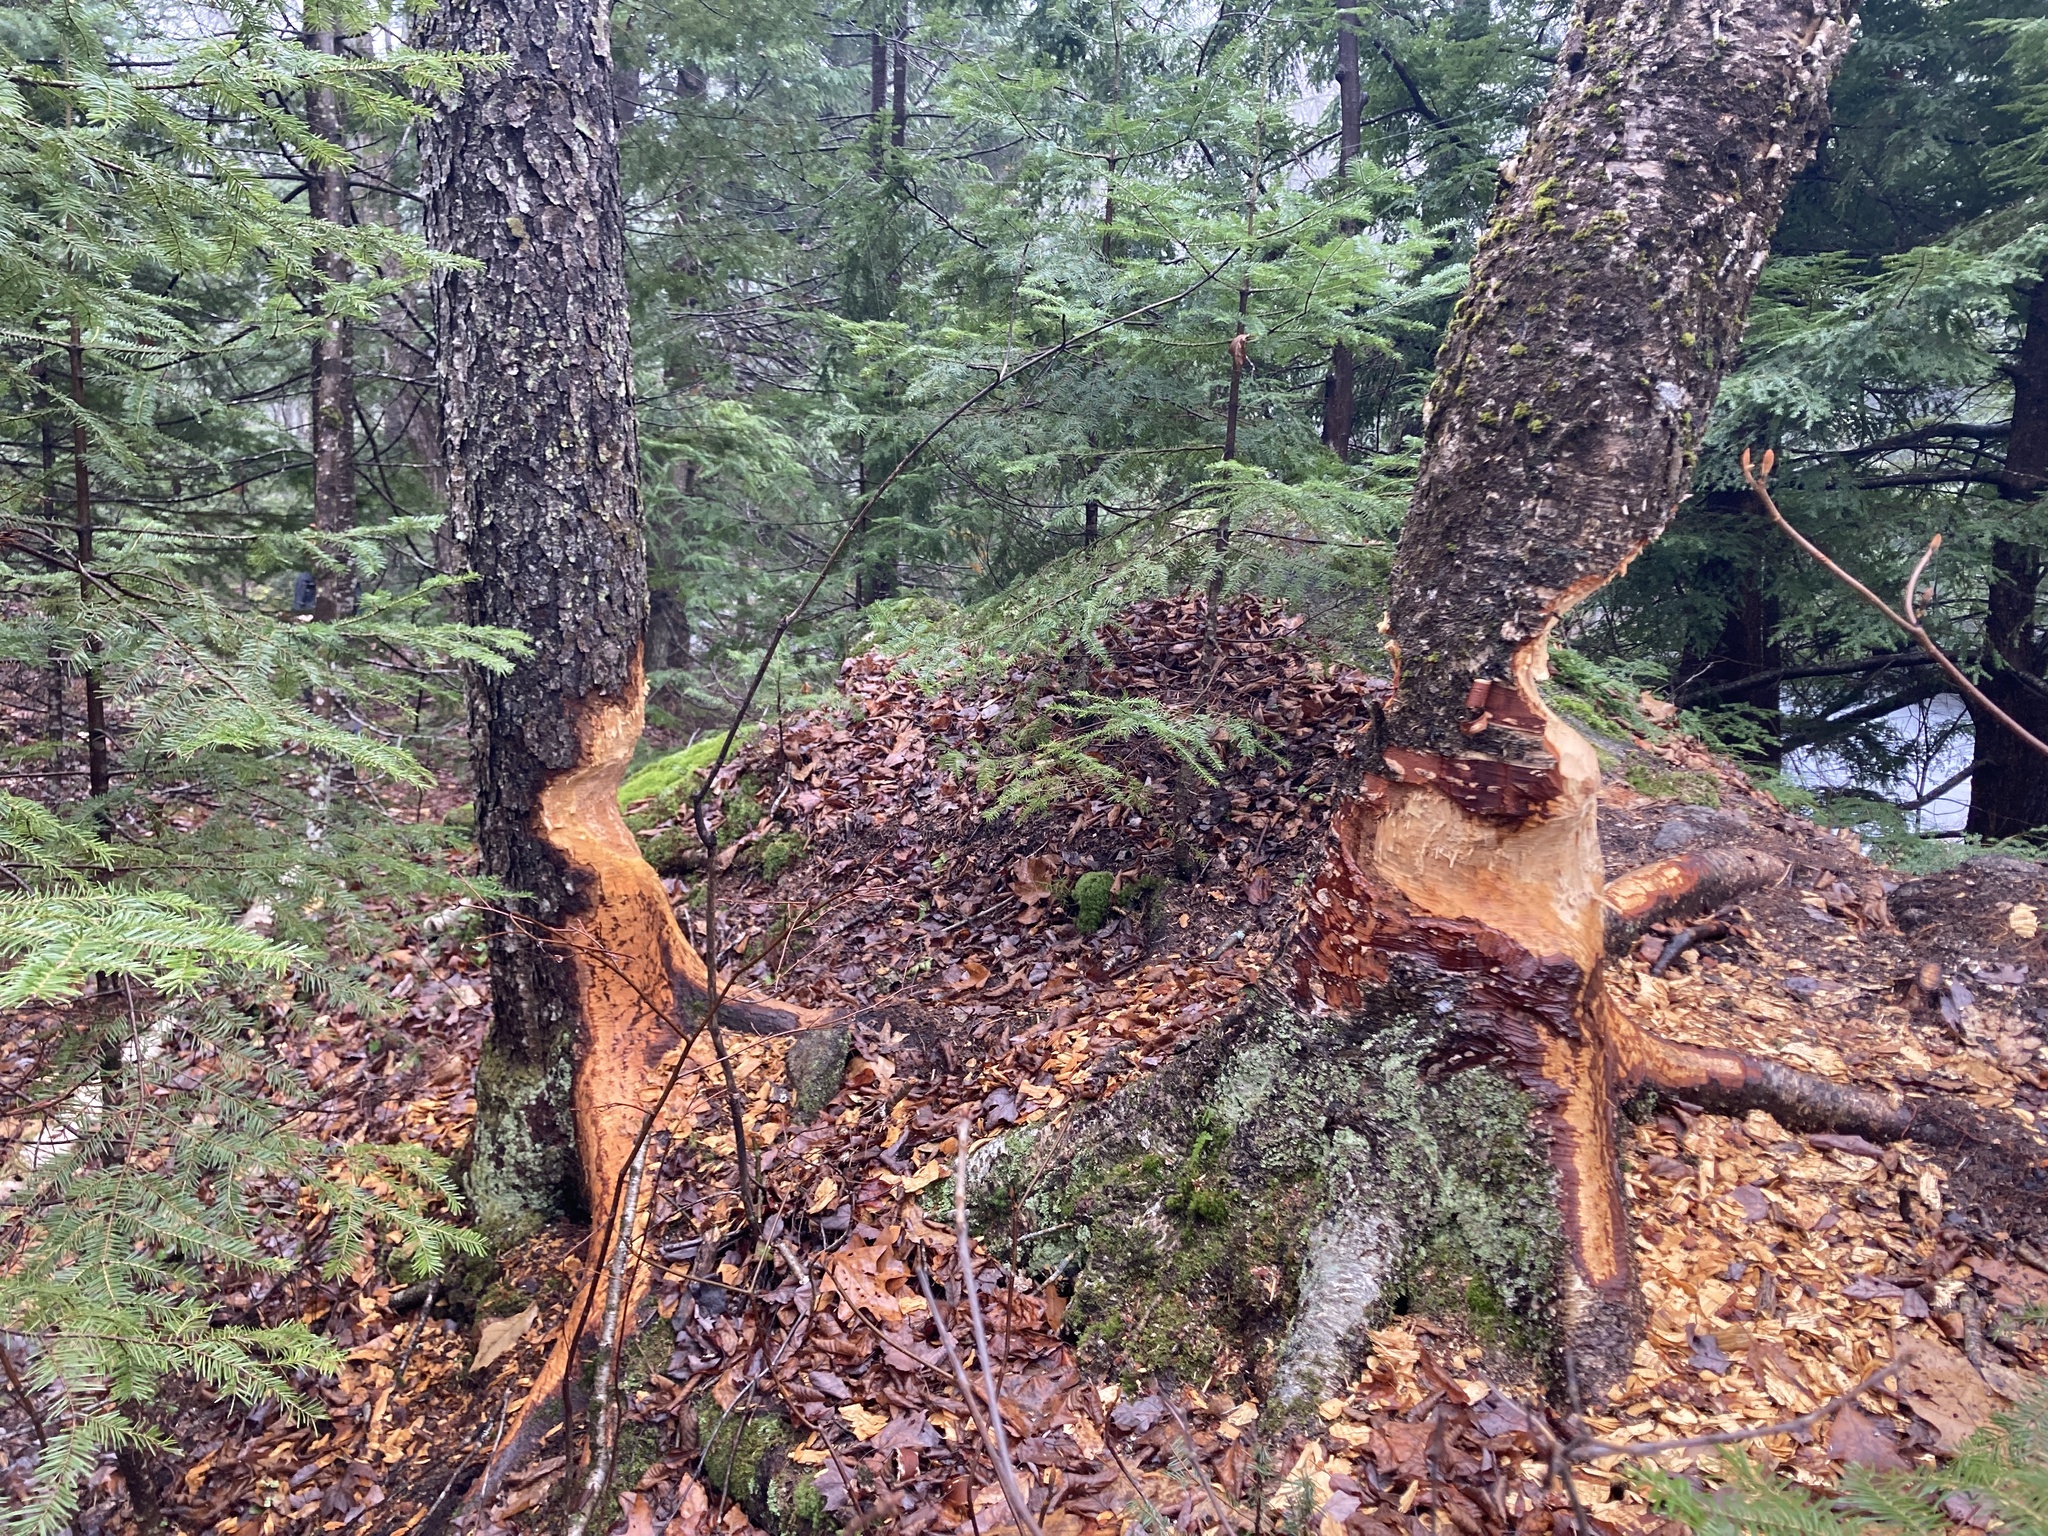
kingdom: Animalia
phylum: Chordata
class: Mammalia
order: Rodentia
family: Castoridae
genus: Castor
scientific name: Castor canadensis
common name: American beaver
